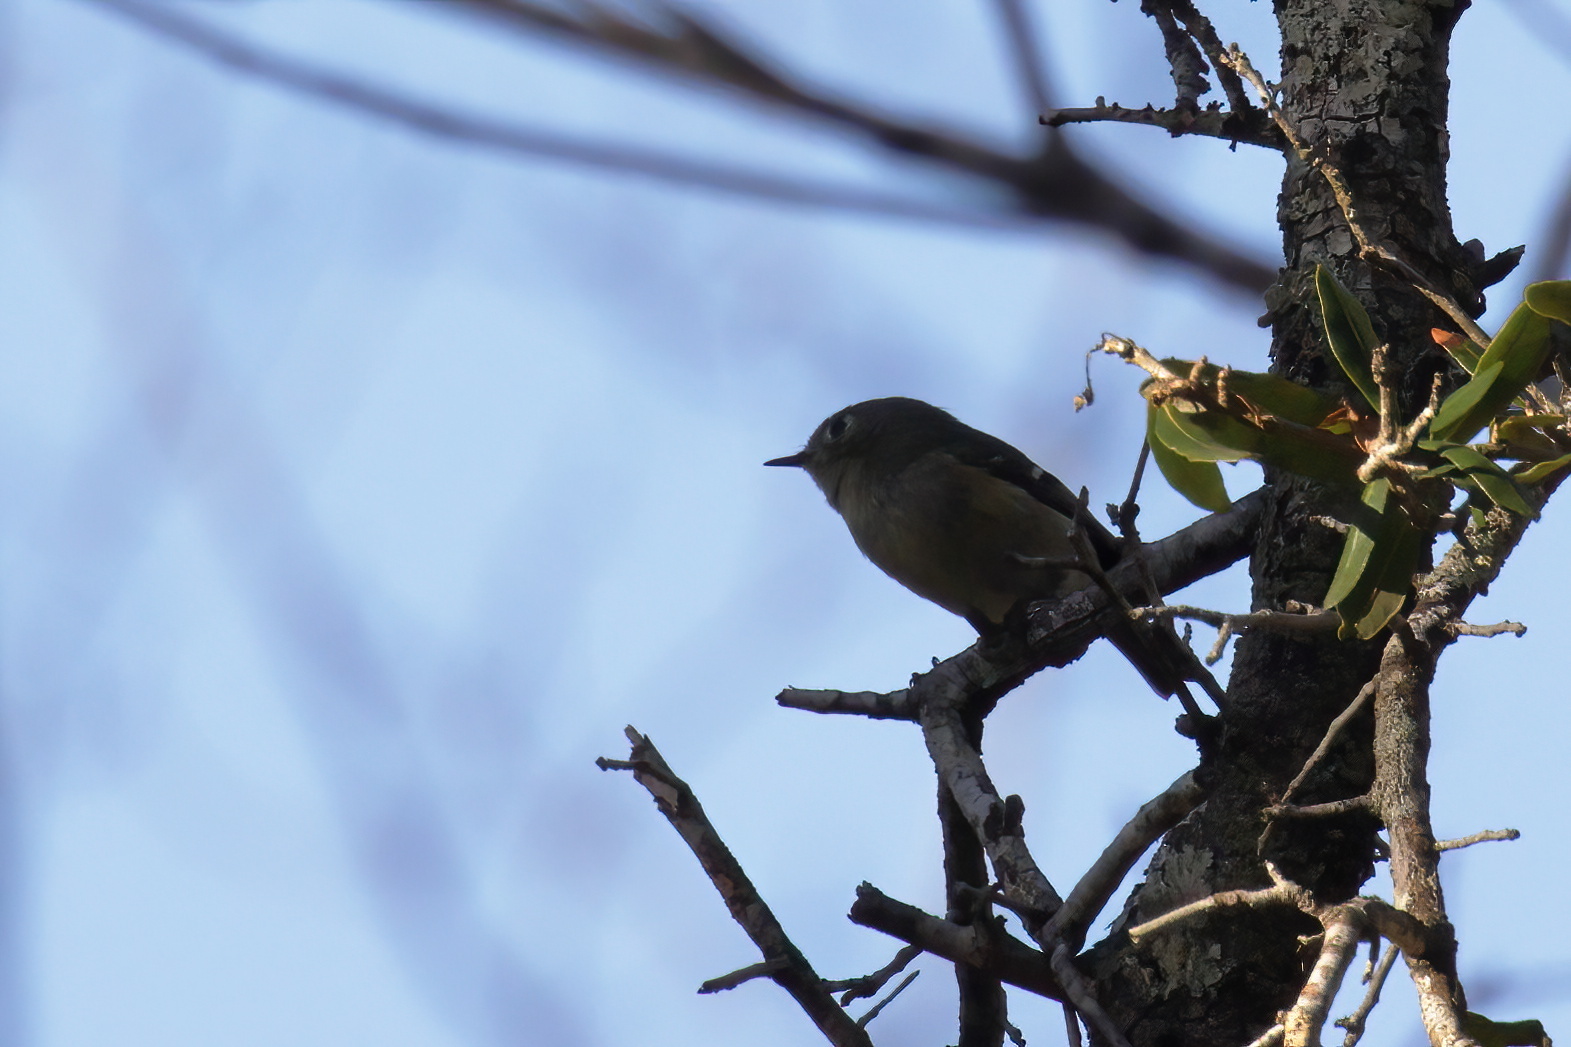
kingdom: Animalia
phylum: Chordata
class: Aves
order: Passeriformes
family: Regulidae
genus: Regulus
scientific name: Regulus calendula
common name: Ruby-crowned kinglet
